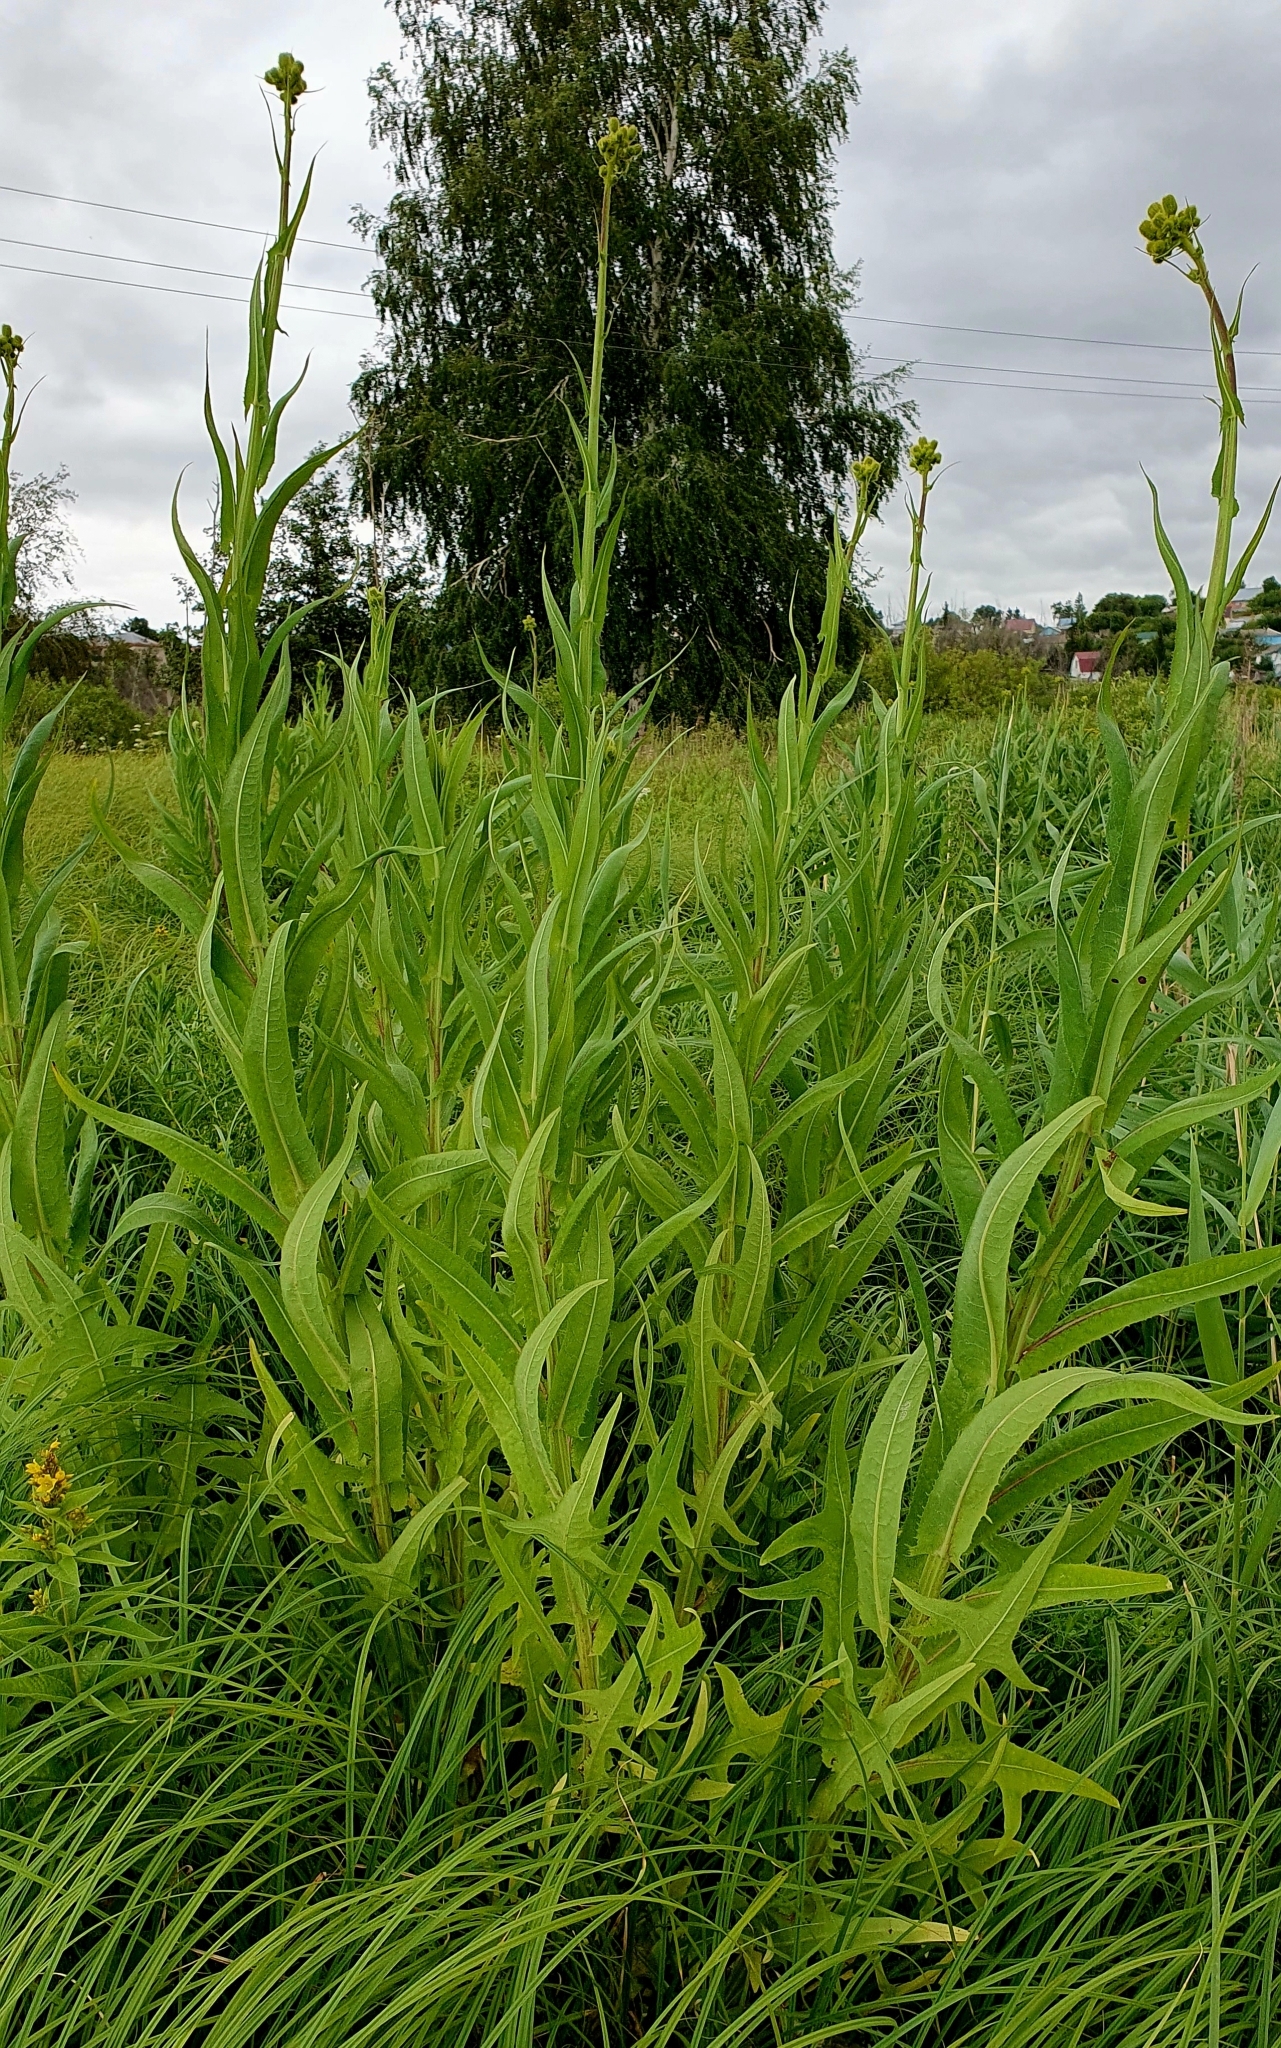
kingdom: Plantae
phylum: Tracheophyta
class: Magnoliopsida
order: Asterales
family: Asteraceae
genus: Sonchus
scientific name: Sonchus palustris
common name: Marsh sow-thistle
